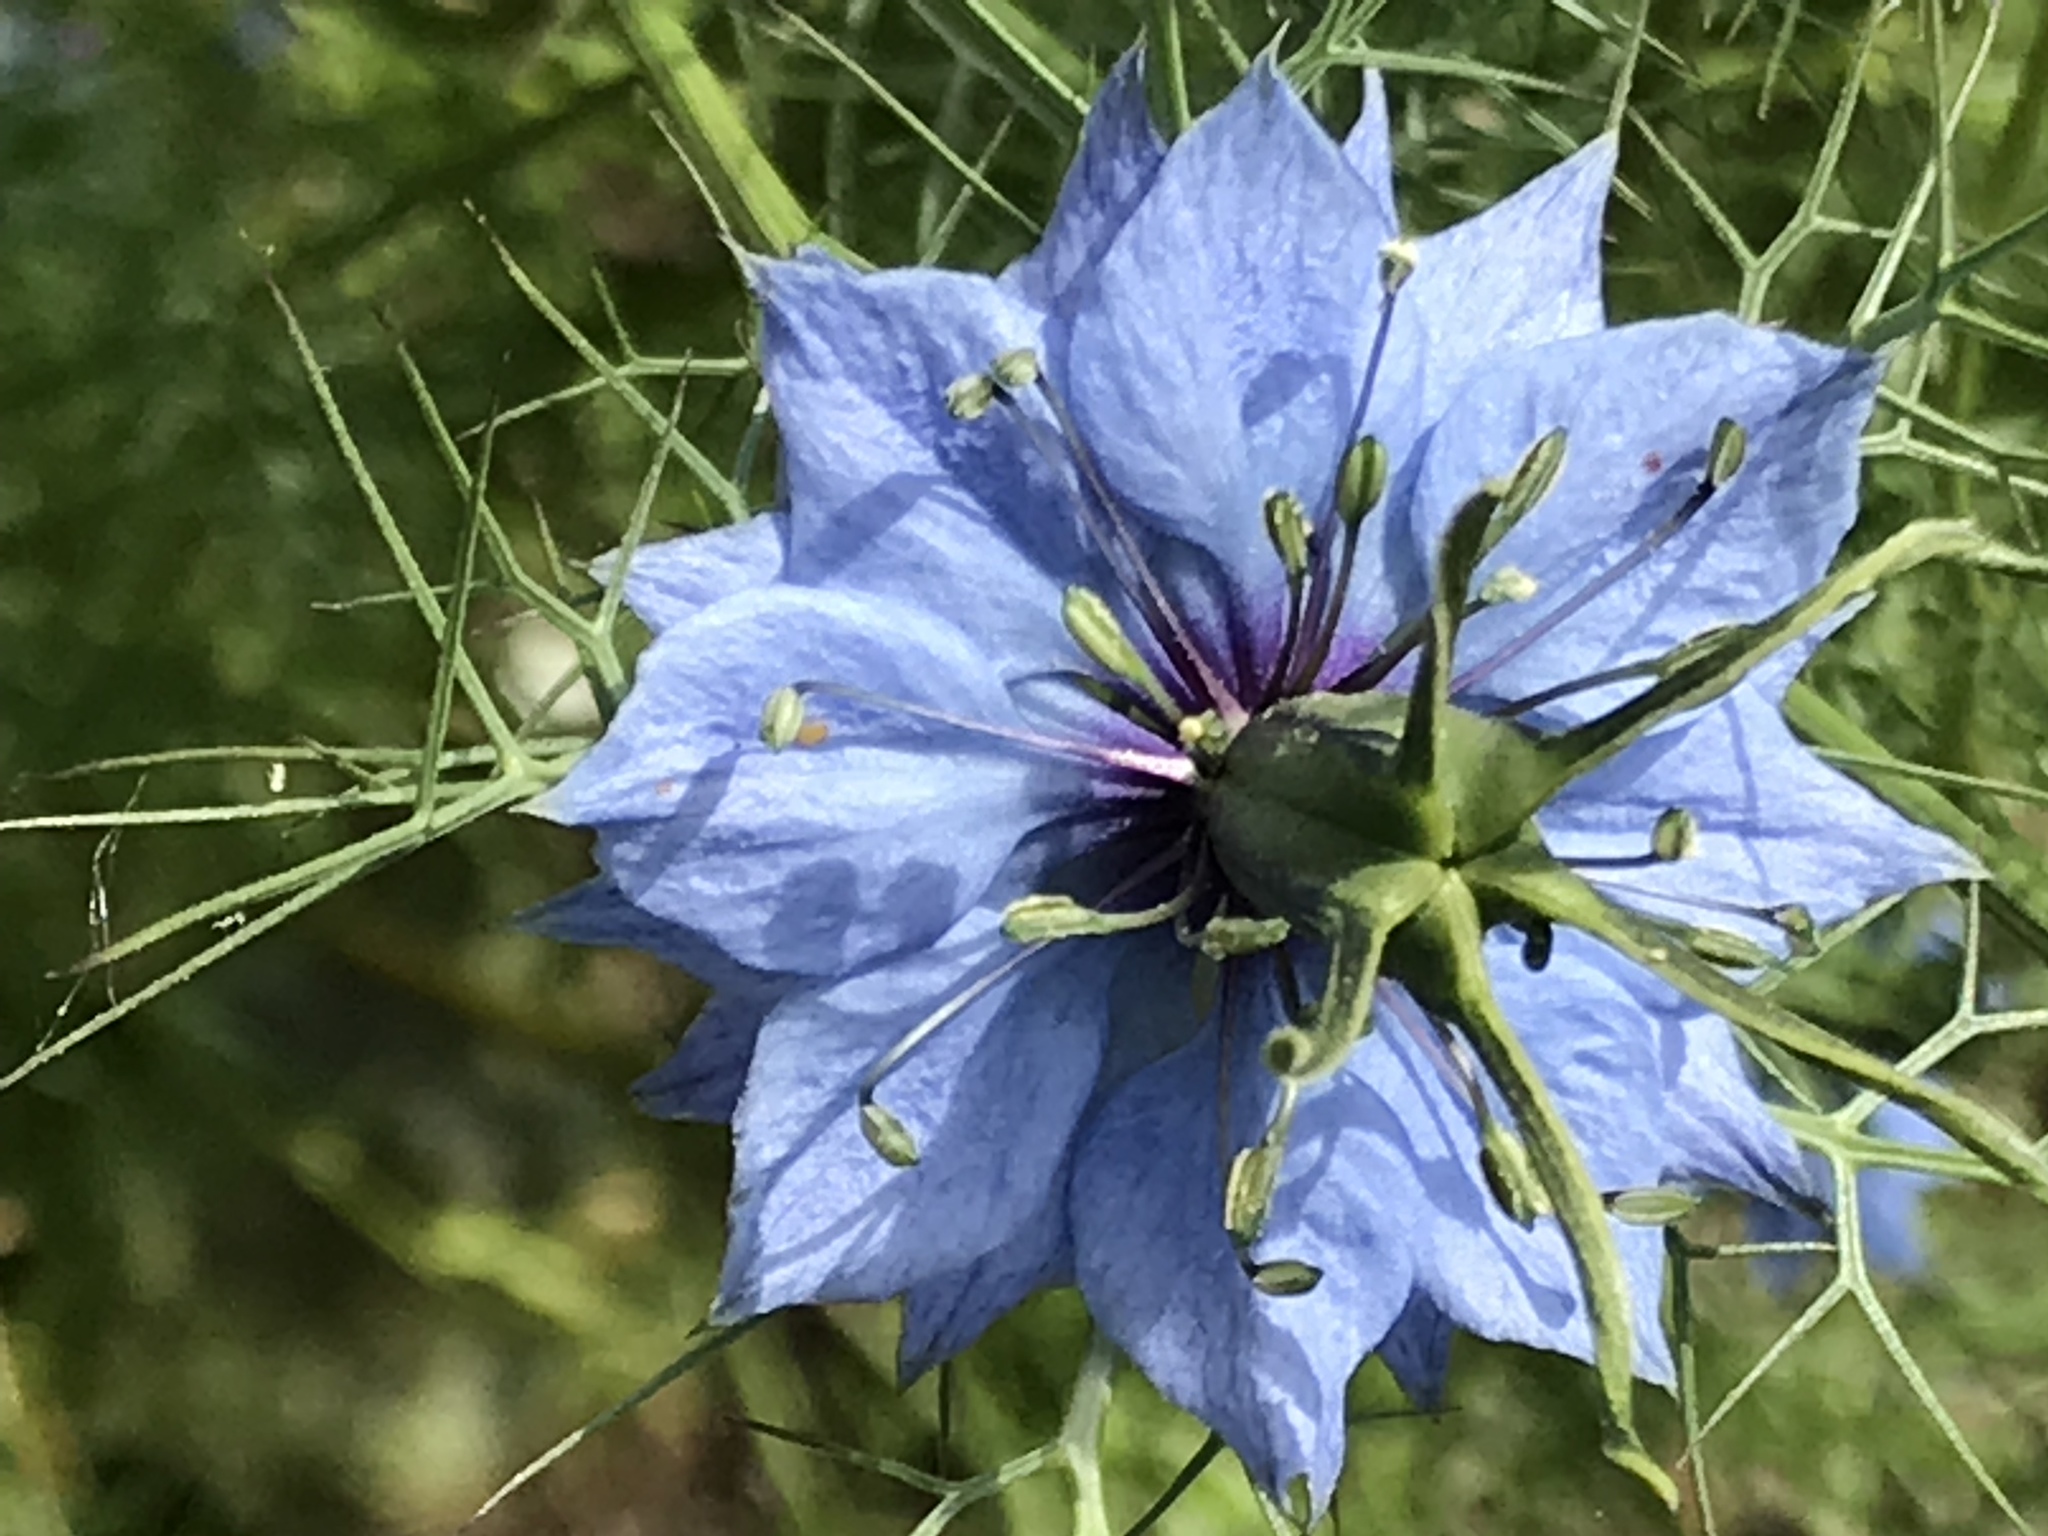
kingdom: Plantae
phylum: Tracheophyta
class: Magnoliopsida
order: Ranunculales
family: Ranunculaceae
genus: Nigella
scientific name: Nigella damascena
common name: Love-in-a-mist
